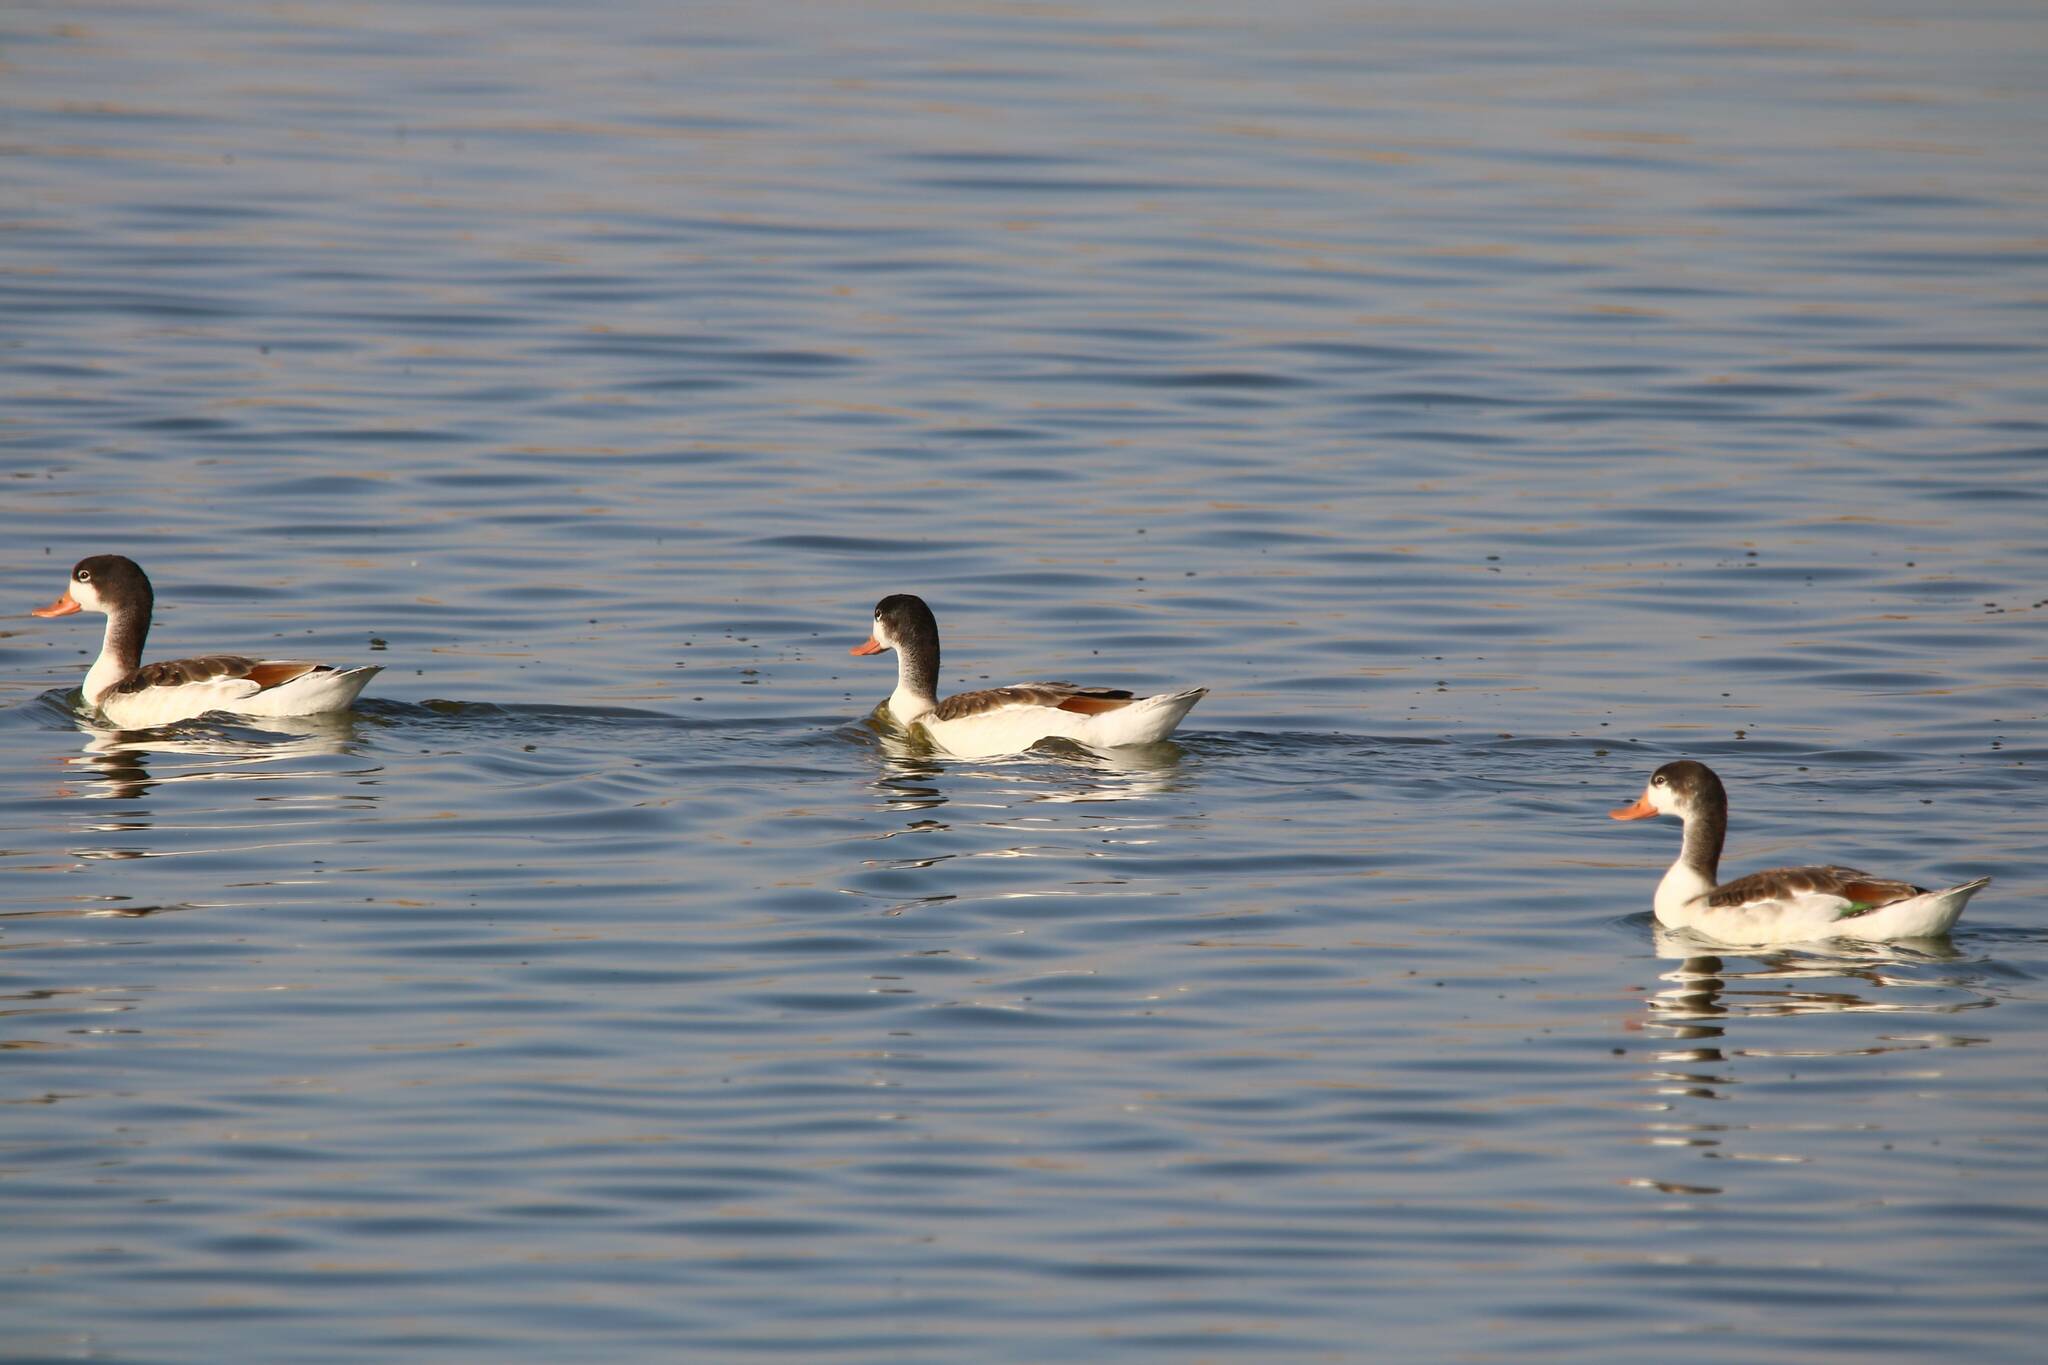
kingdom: Animalia
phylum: Chordata
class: Aves
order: Anseriformes
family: Anatidae
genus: Tadorna
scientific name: Tadorna tadorna
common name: Common shelduck
